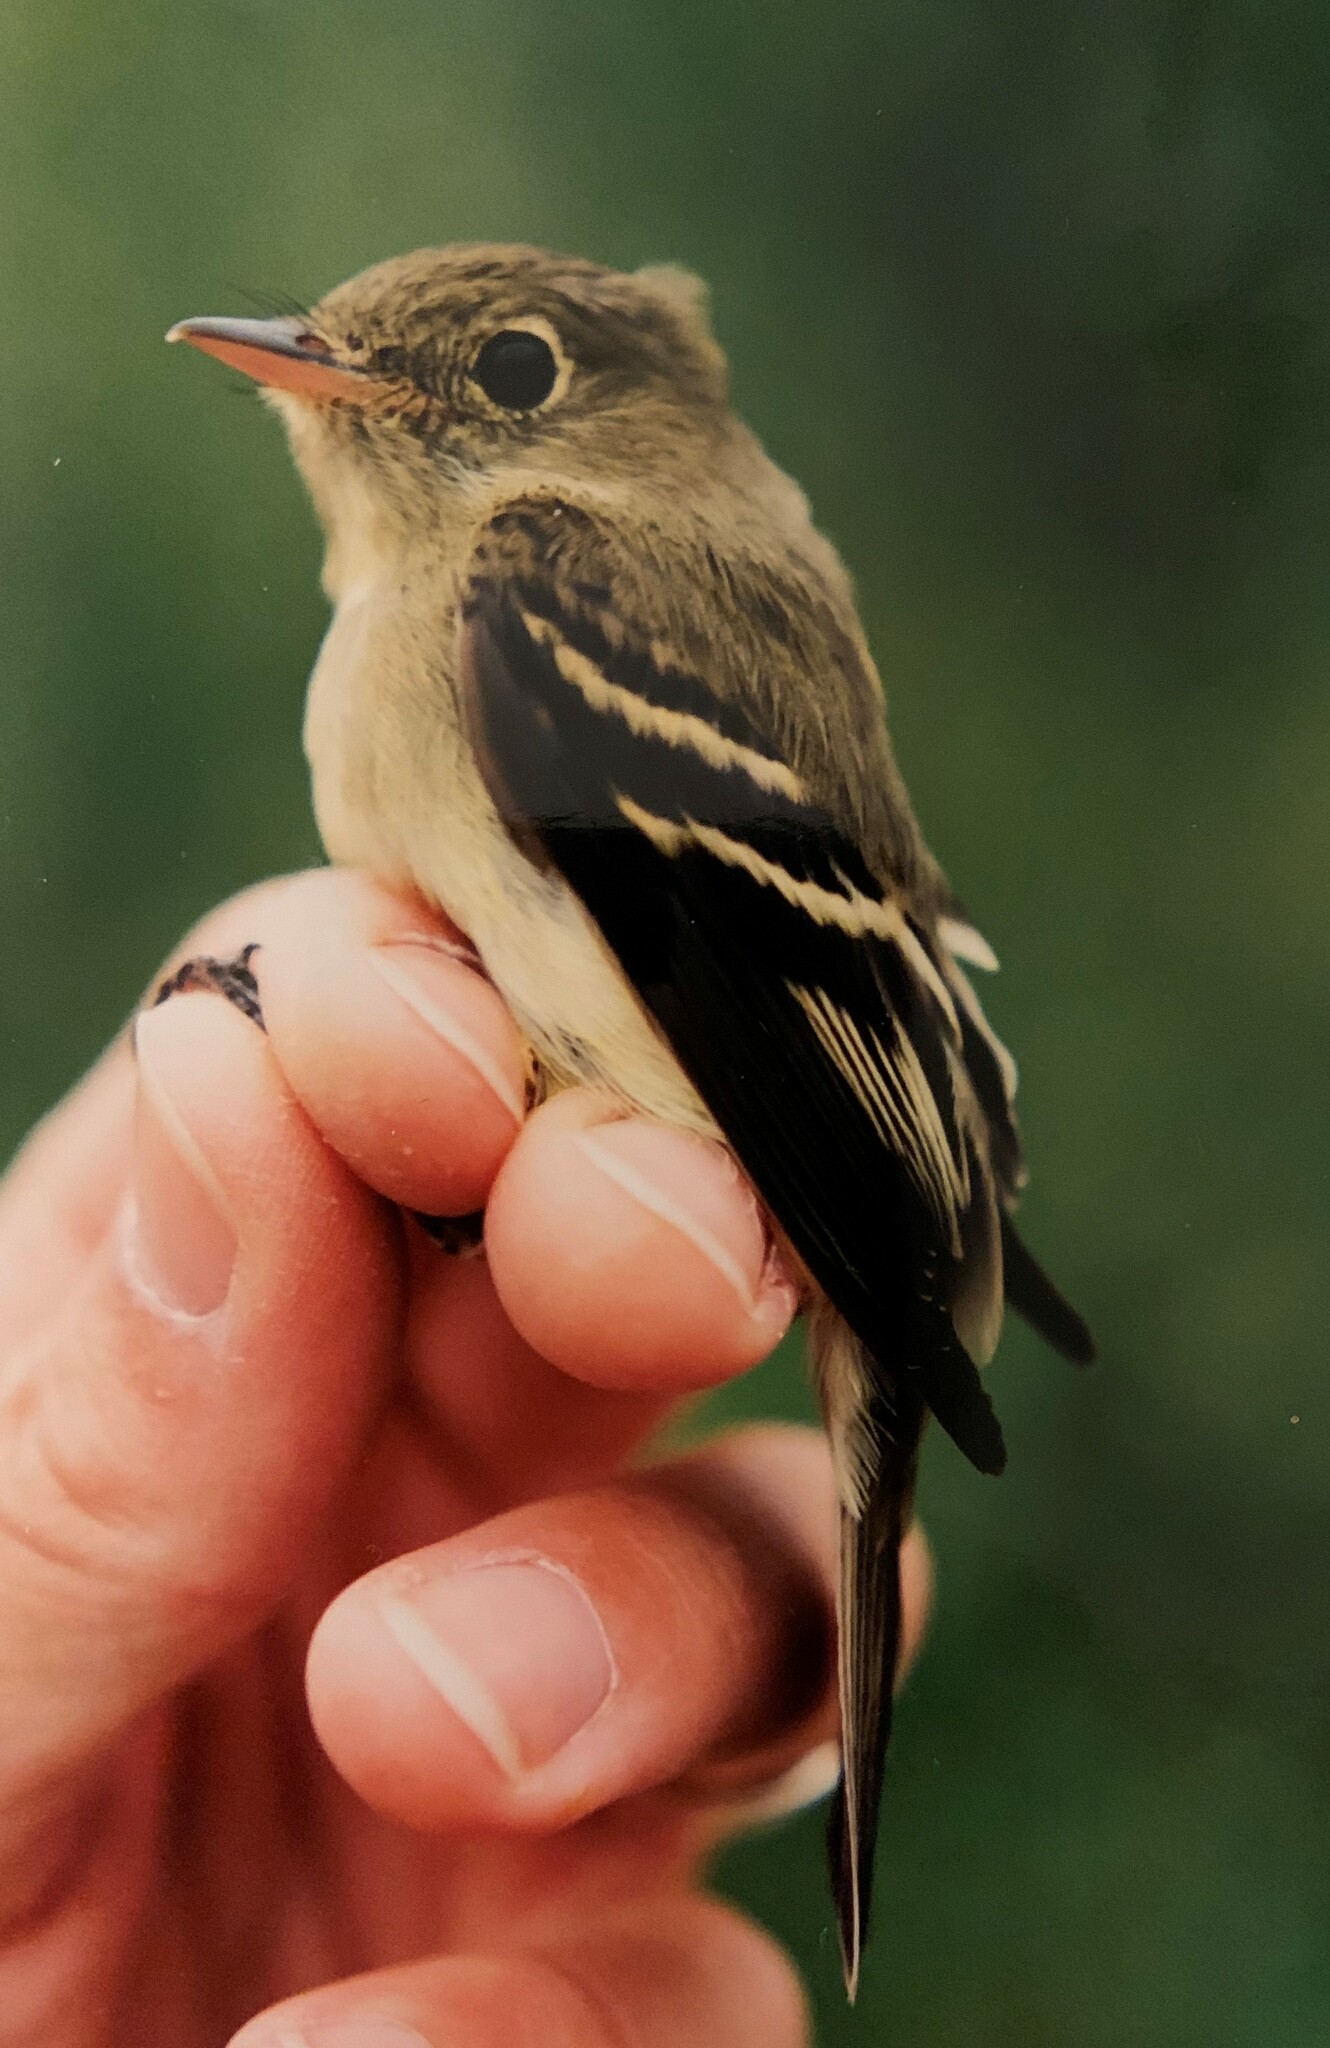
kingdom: Animalia
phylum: Chordata
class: Aves
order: Passeriformes
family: Tyrannidae
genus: Empidonax
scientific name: Empidonax flaviventris
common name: Yellow-bellied flycatcher
